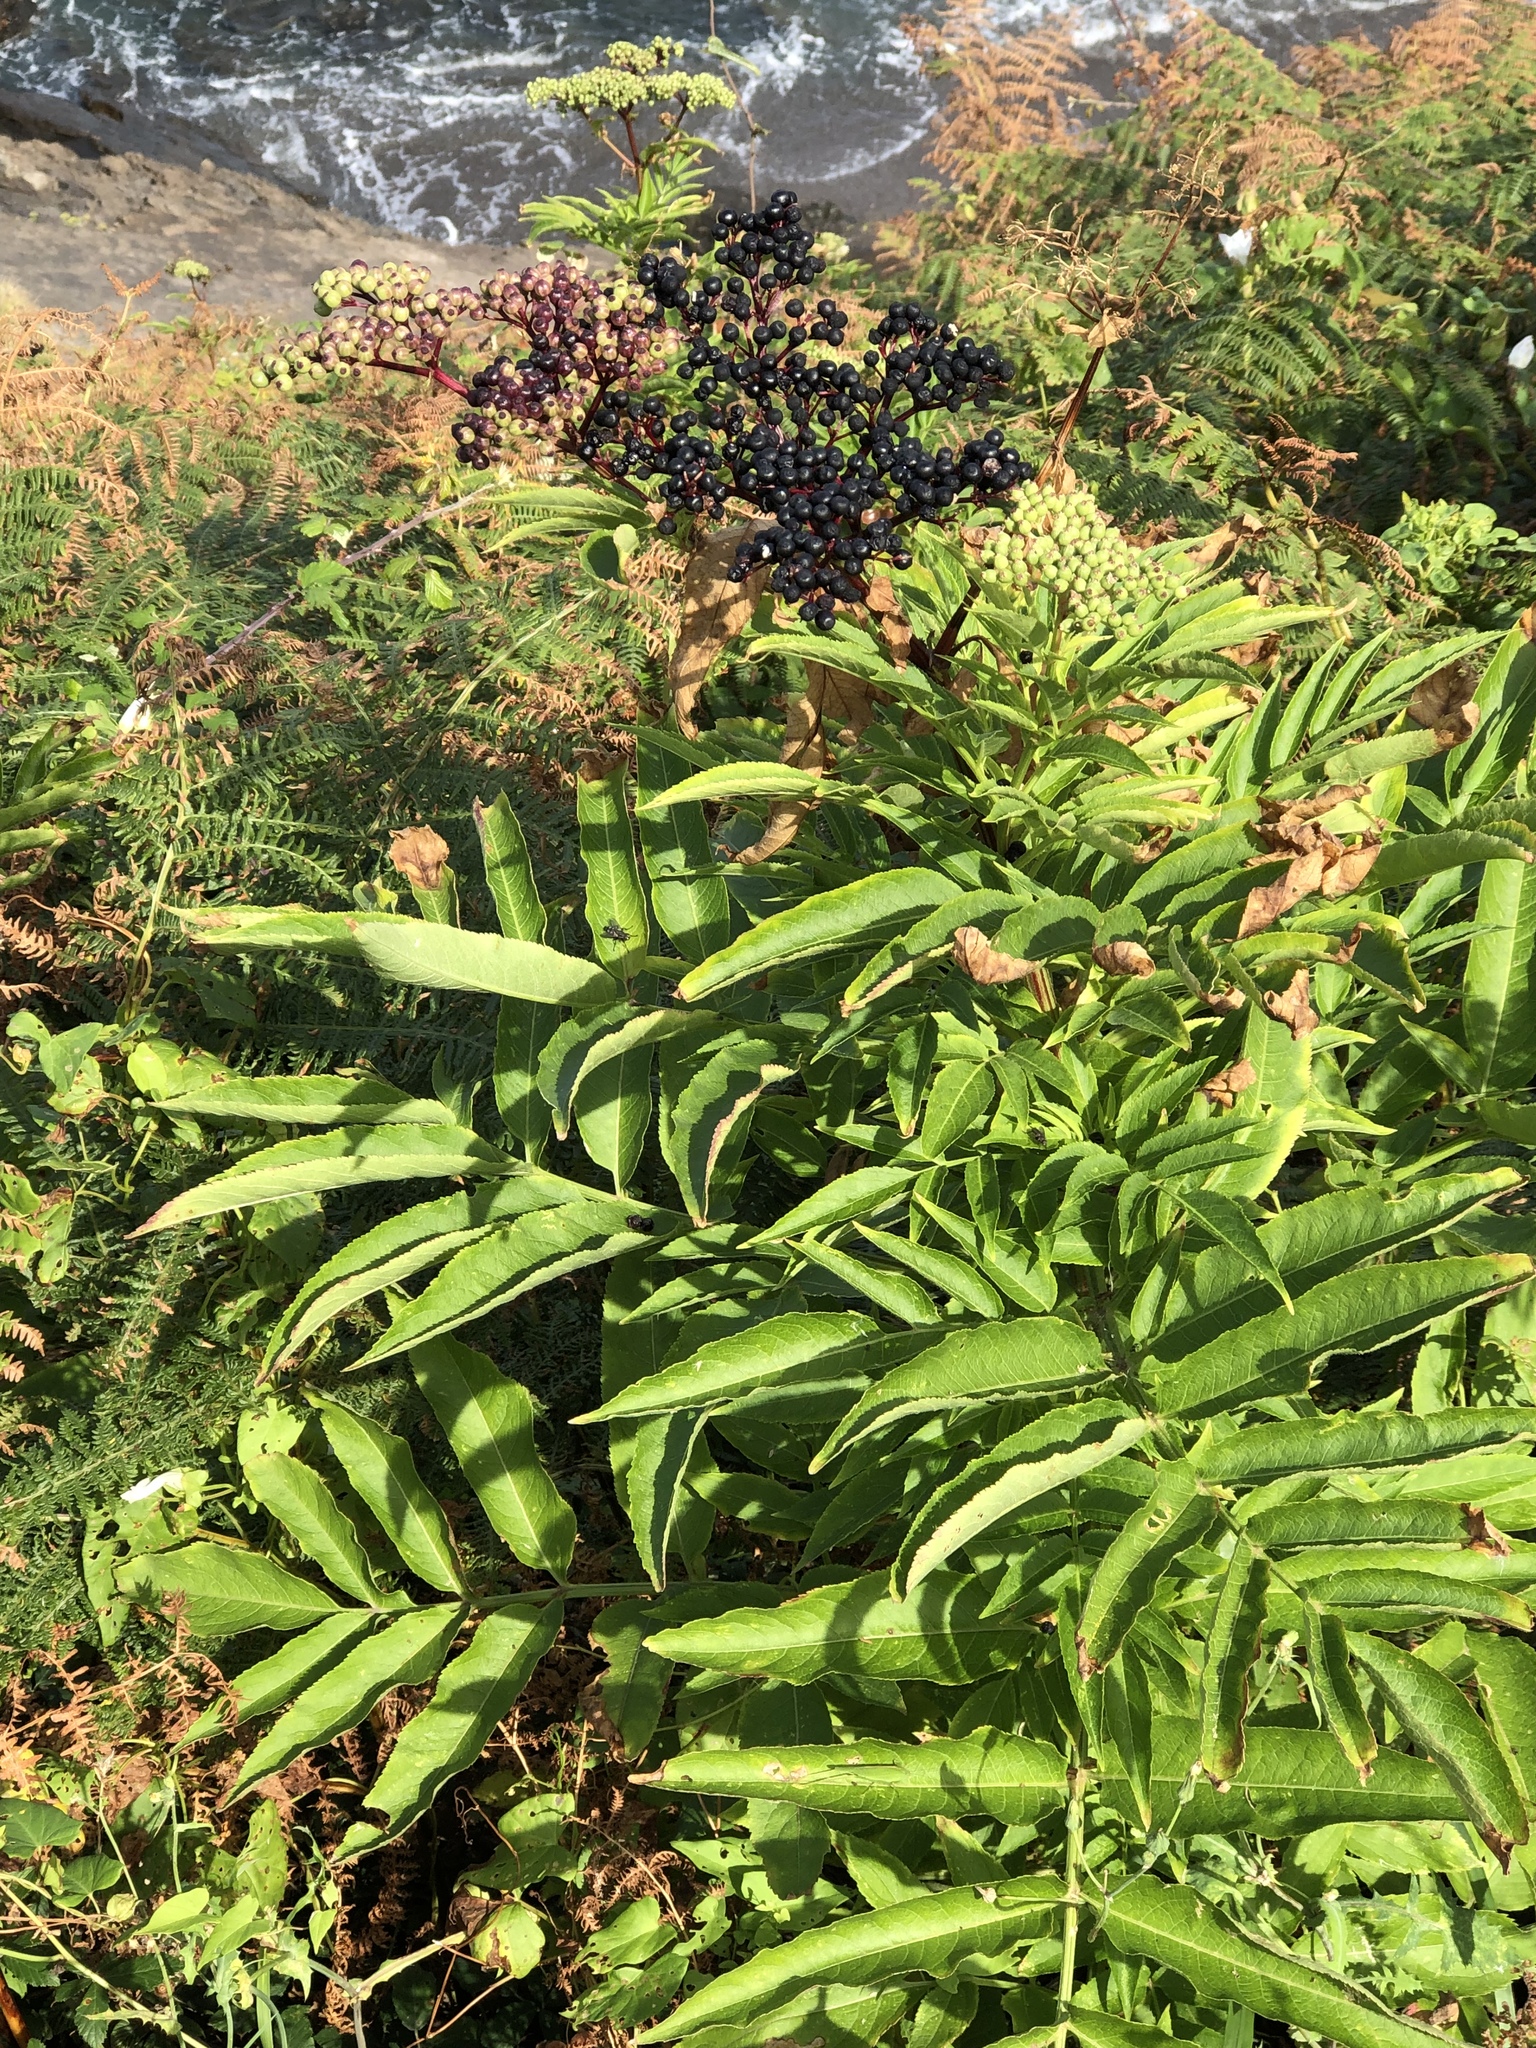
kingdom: Plantae
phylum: Tracheophyta
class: Magnoliopsida
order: Dipsacales
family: Viburnaceae
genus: Sambucus
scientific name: Sambucus ebulus
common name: Dwarf elder
